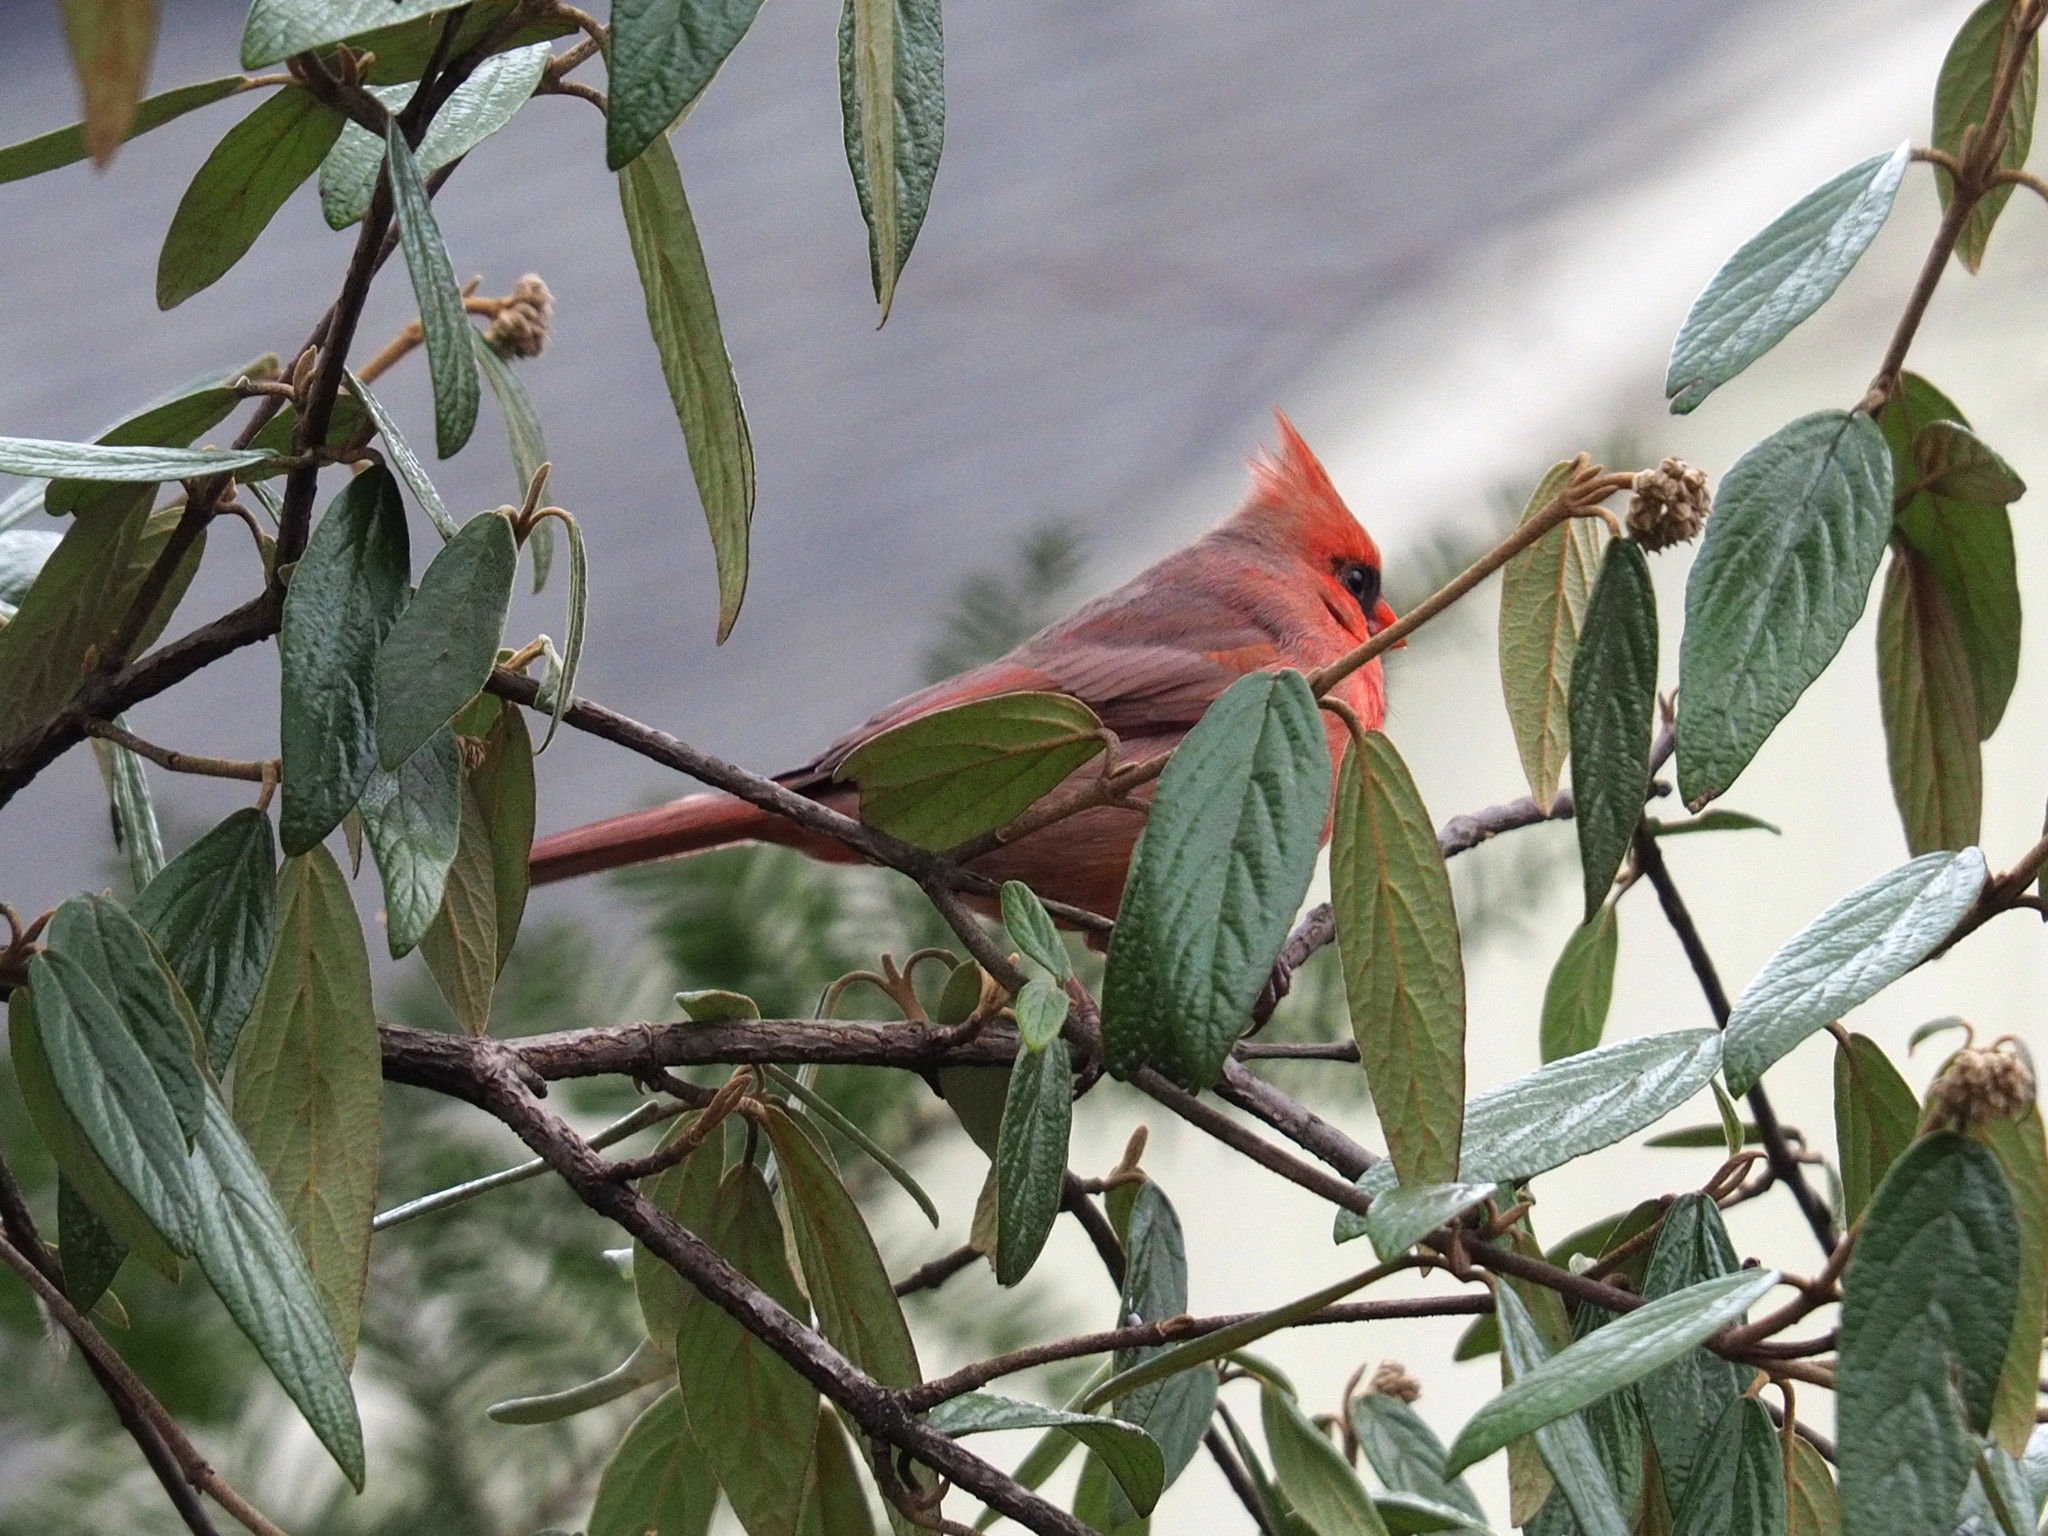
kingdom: Animalia
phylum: Chordata
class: Aves
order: Passeriformes
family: Cardinalidae
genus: Cardinalis
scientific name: Cardinalis cardinalis
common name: Northern cardinal
